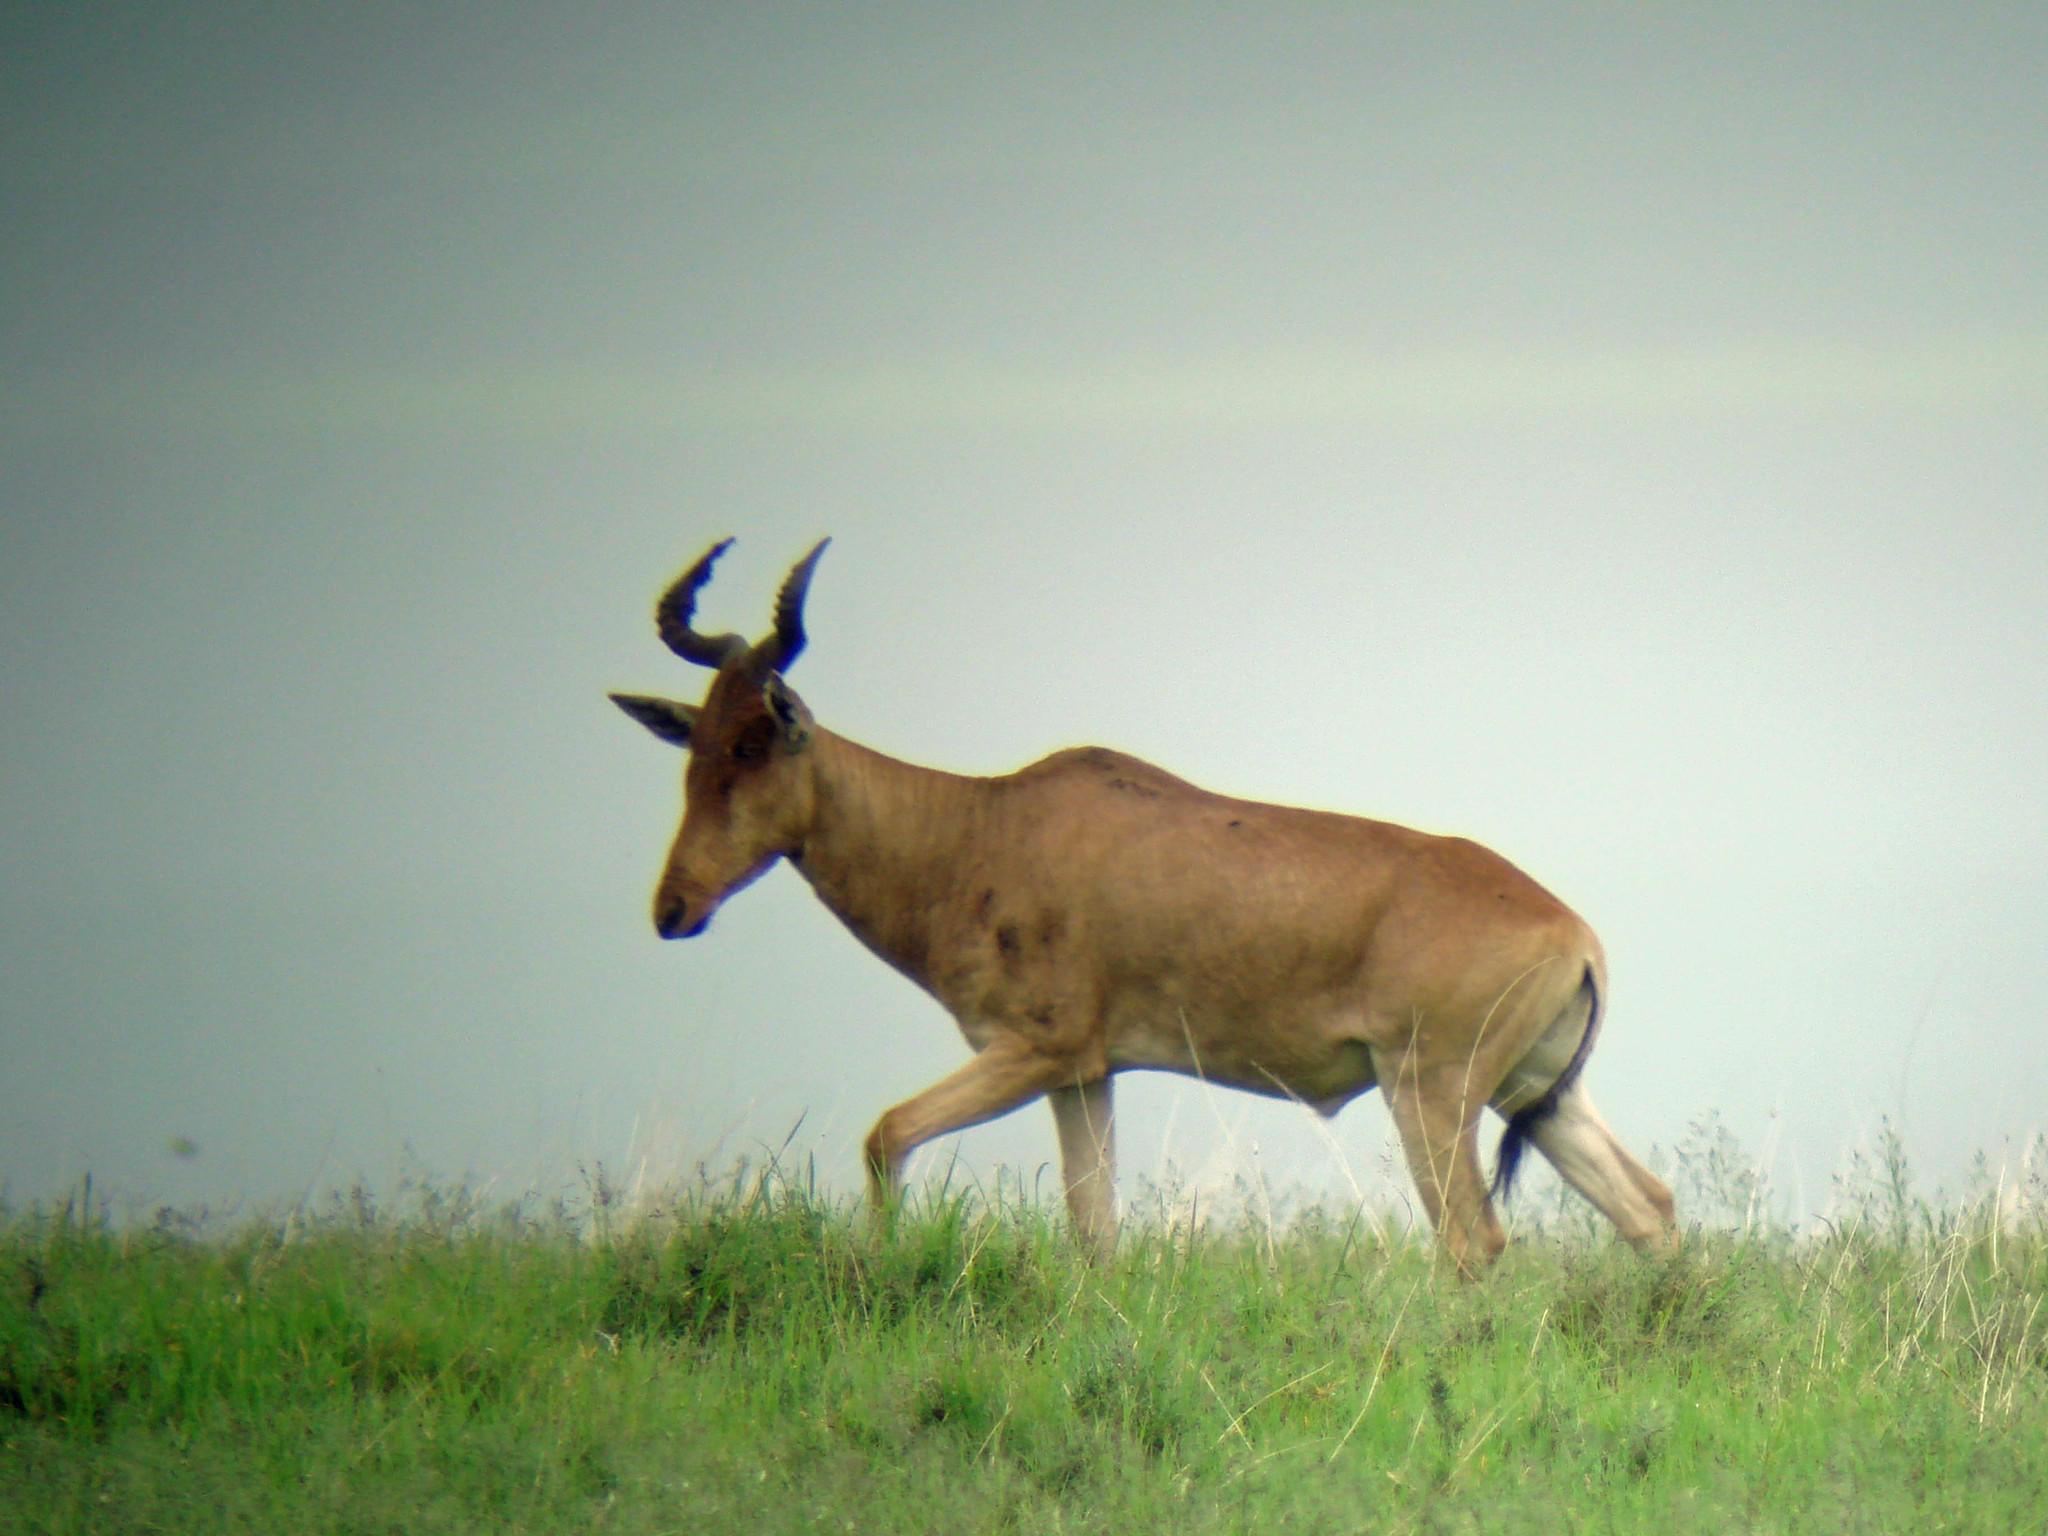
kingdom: Animalia
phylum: Chordata
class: Mammalia
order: Artiodactyla
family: Bovidae
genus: Alcelaphus
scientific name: Alcelaphus buselaphus
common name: Hartebeest
